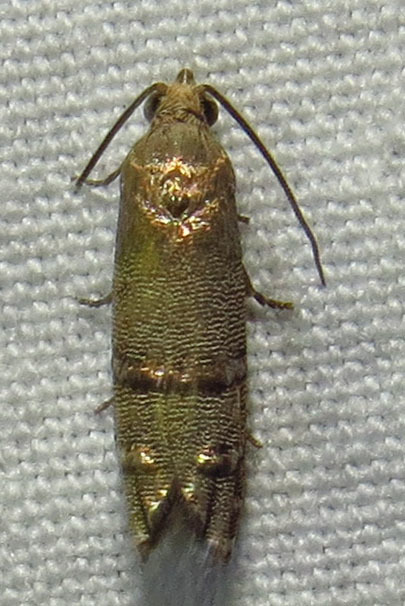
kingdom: Animalia
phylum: Arthropoda
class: Insecta
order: Lepidoptera
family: Tortricidae
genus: Cydia
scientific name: Cydia toreuta
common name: Eastern pine seedworm moth
